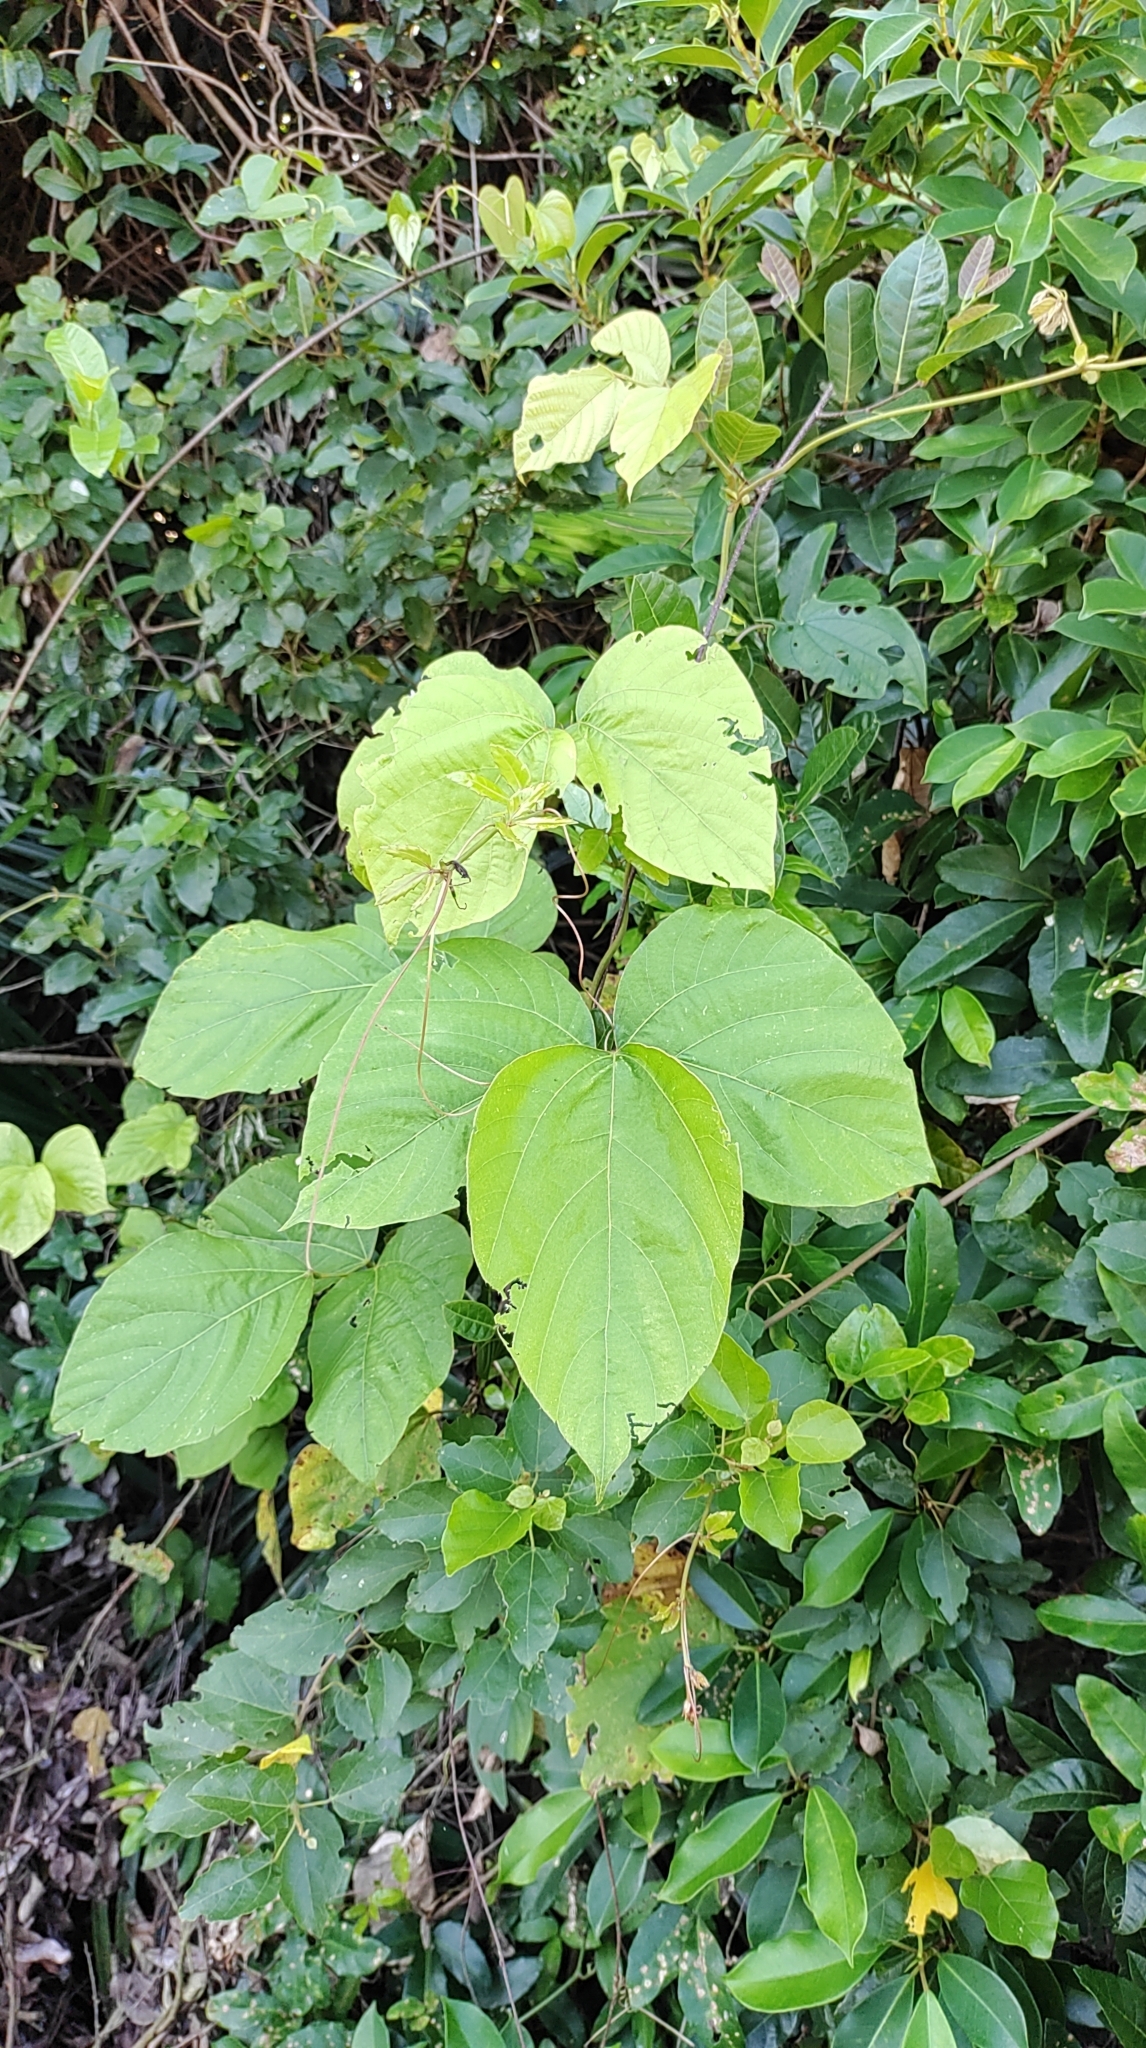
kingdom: Plantae
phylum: Tracheophyta
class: Magnoliopsida
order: Fabales
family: Fabaceae
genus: Pueraria
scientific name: Pueraria montana
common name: Kudzu
